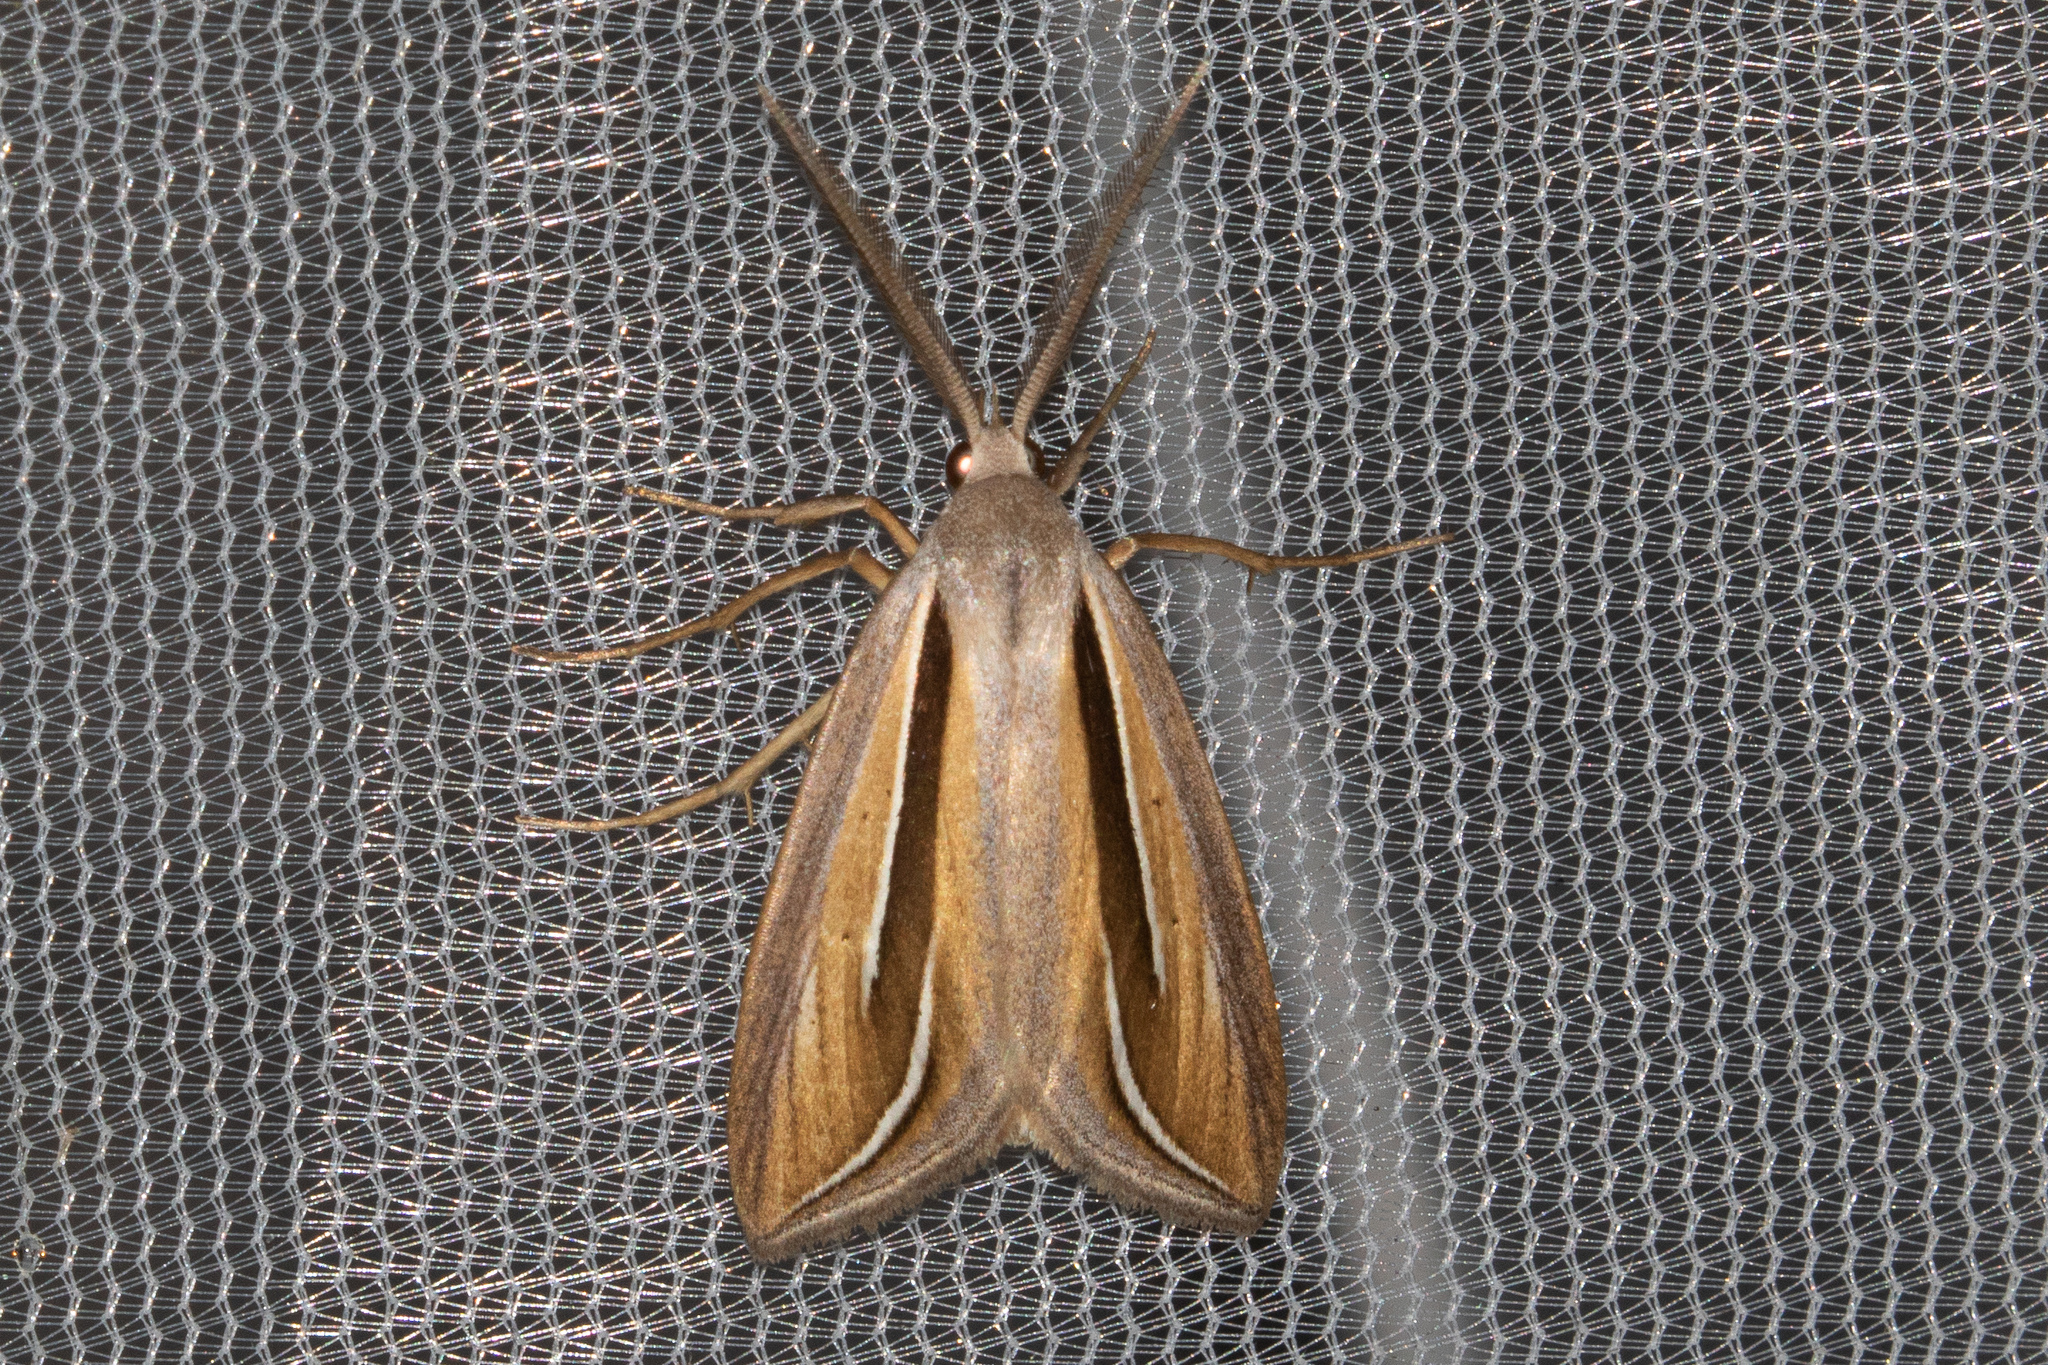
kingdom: Animalia
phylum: Arthropoda
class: Insecta
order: Lepidoptera
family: Erebidae
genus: Doryodes
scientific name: Doryodes bistrialis
